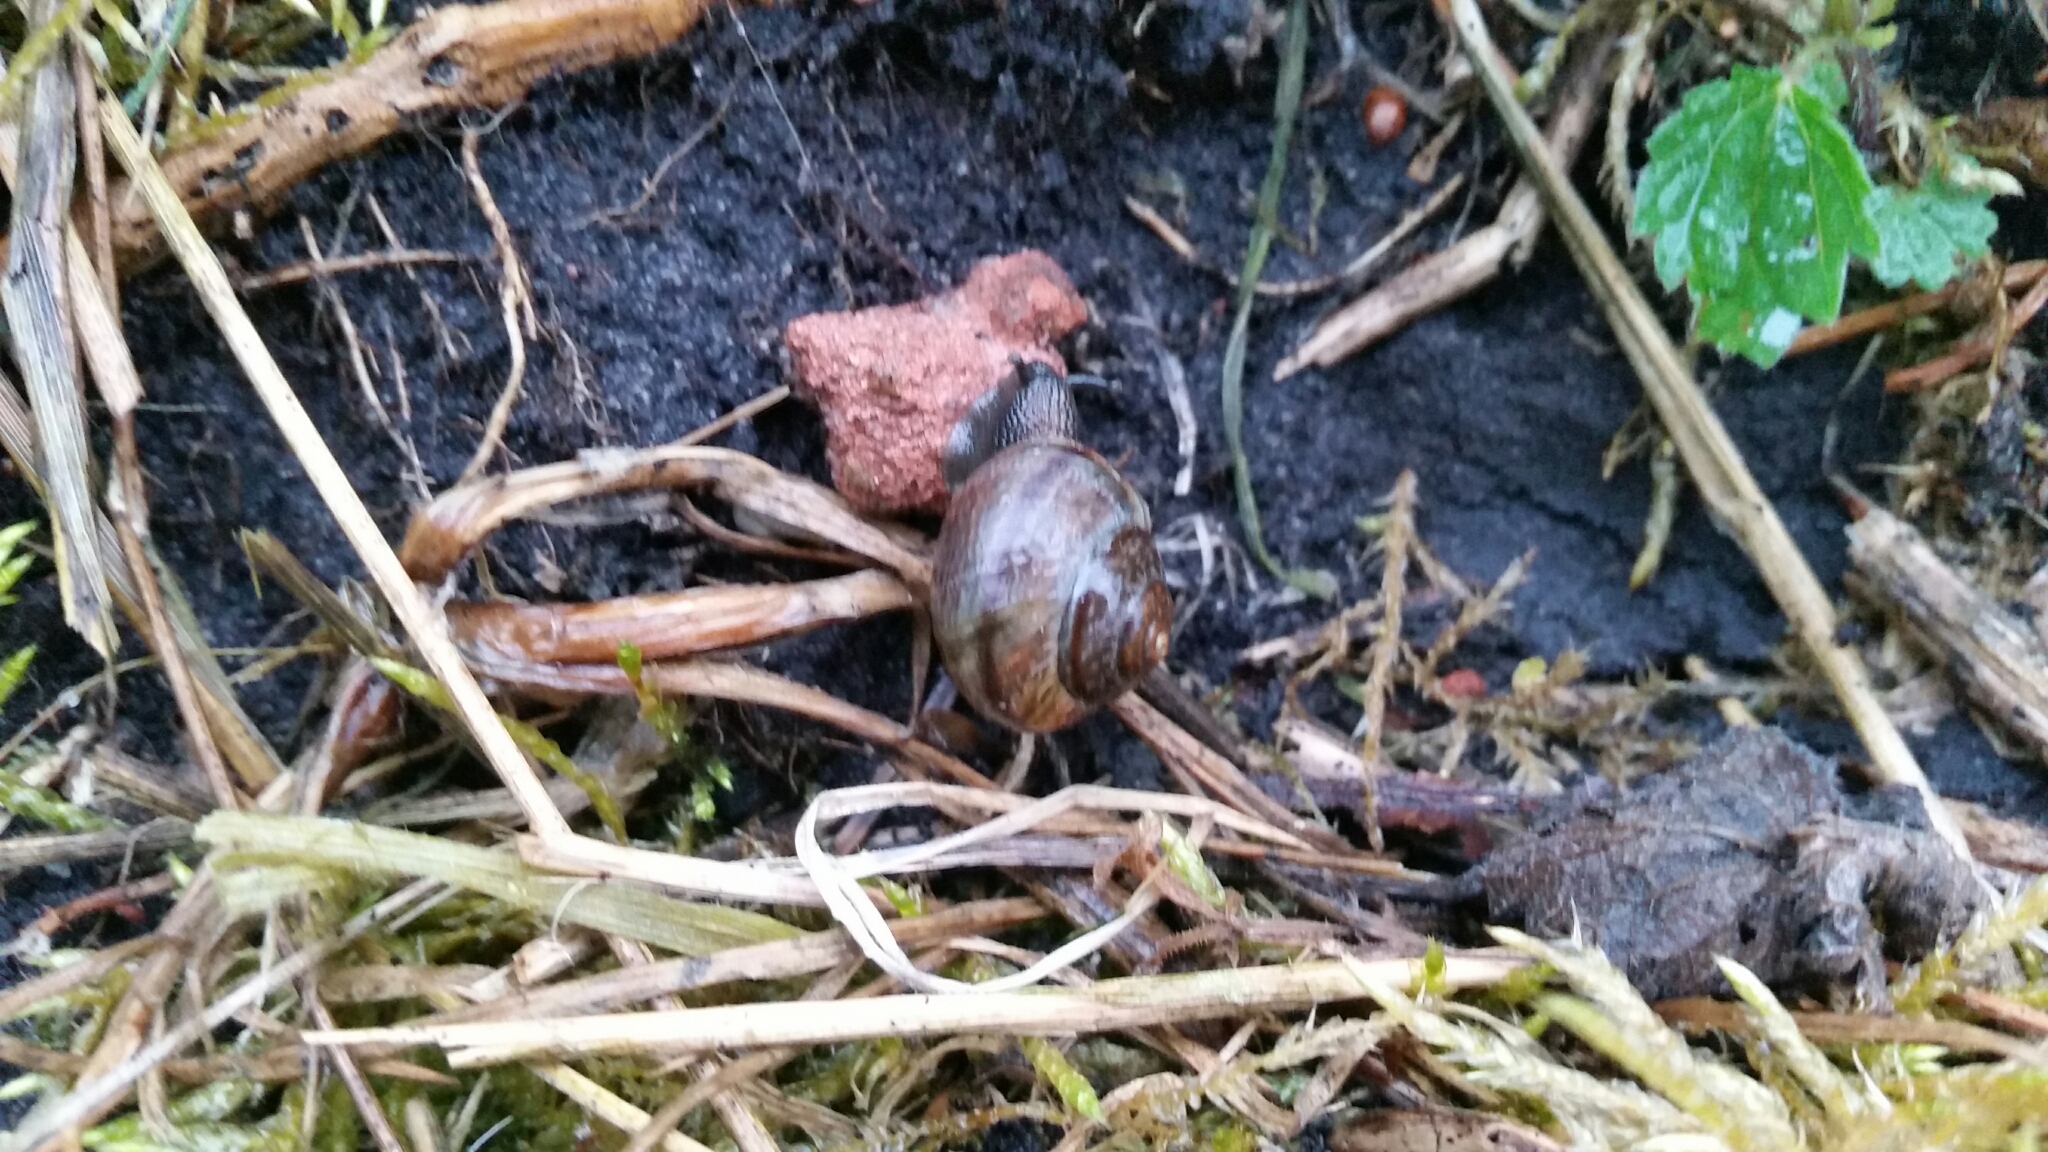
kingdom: Animalia
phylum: Mollusca
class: Gastropoda
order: Stylommatophora
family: Helicidae
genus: Arianta
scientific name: Arianta arbustorum
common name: Copse snail
